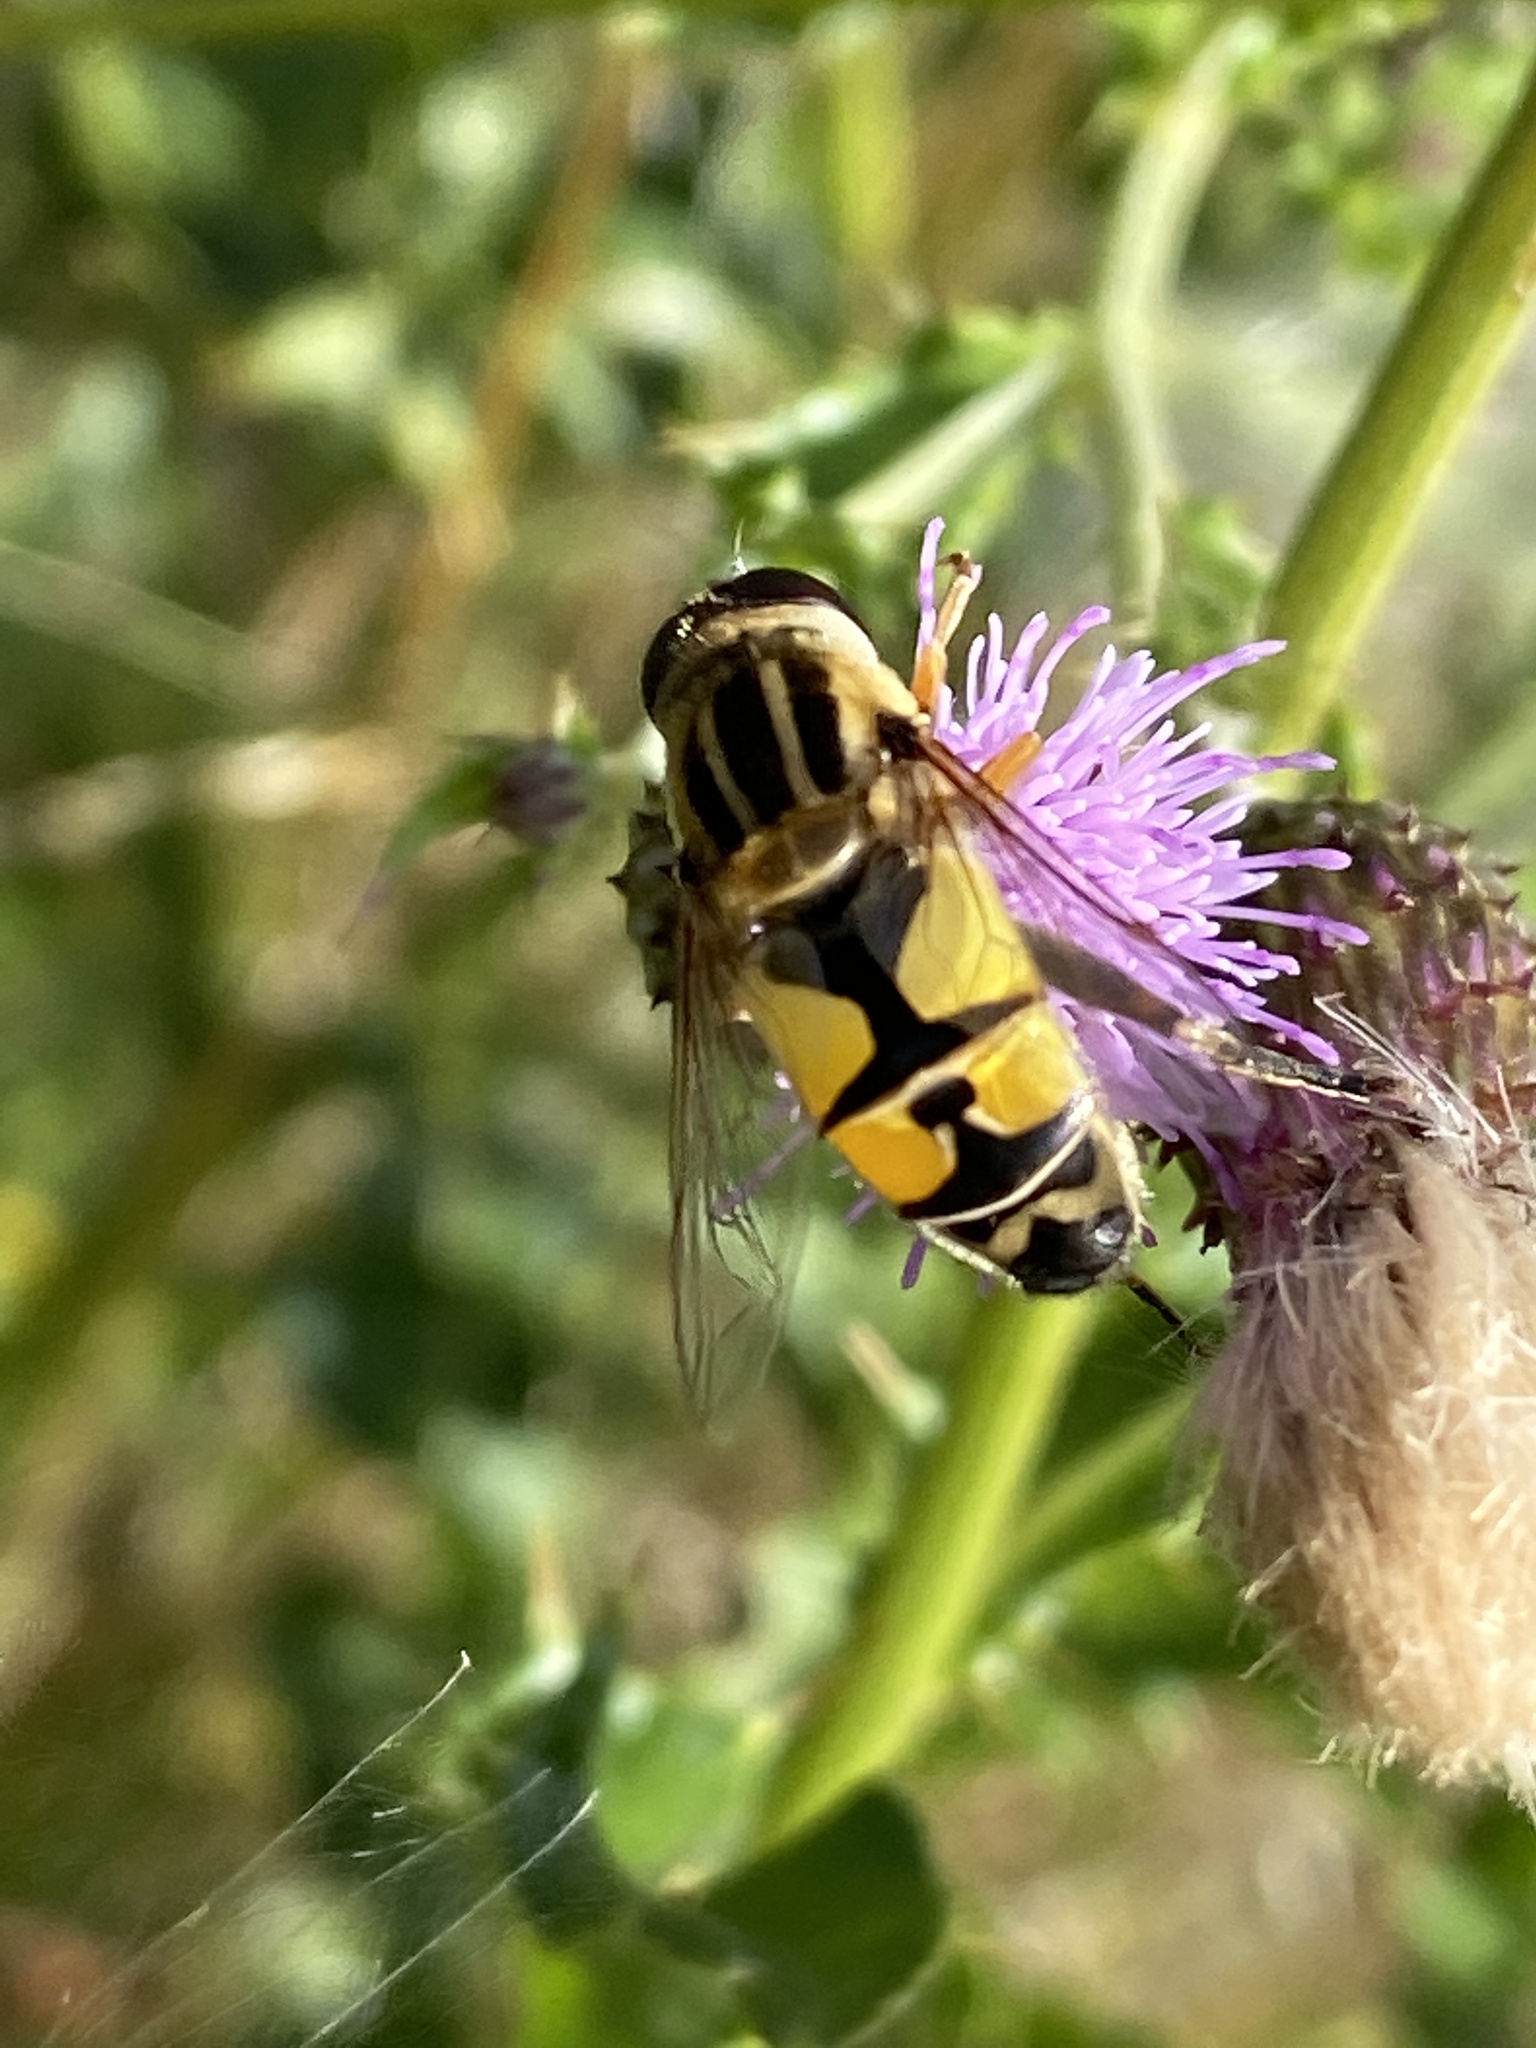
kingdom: Animalia
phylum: Arthropoda
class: Insecta
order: Diptera
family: Syrphidae
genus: Helophilus
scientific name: Helophilus trivittatus
